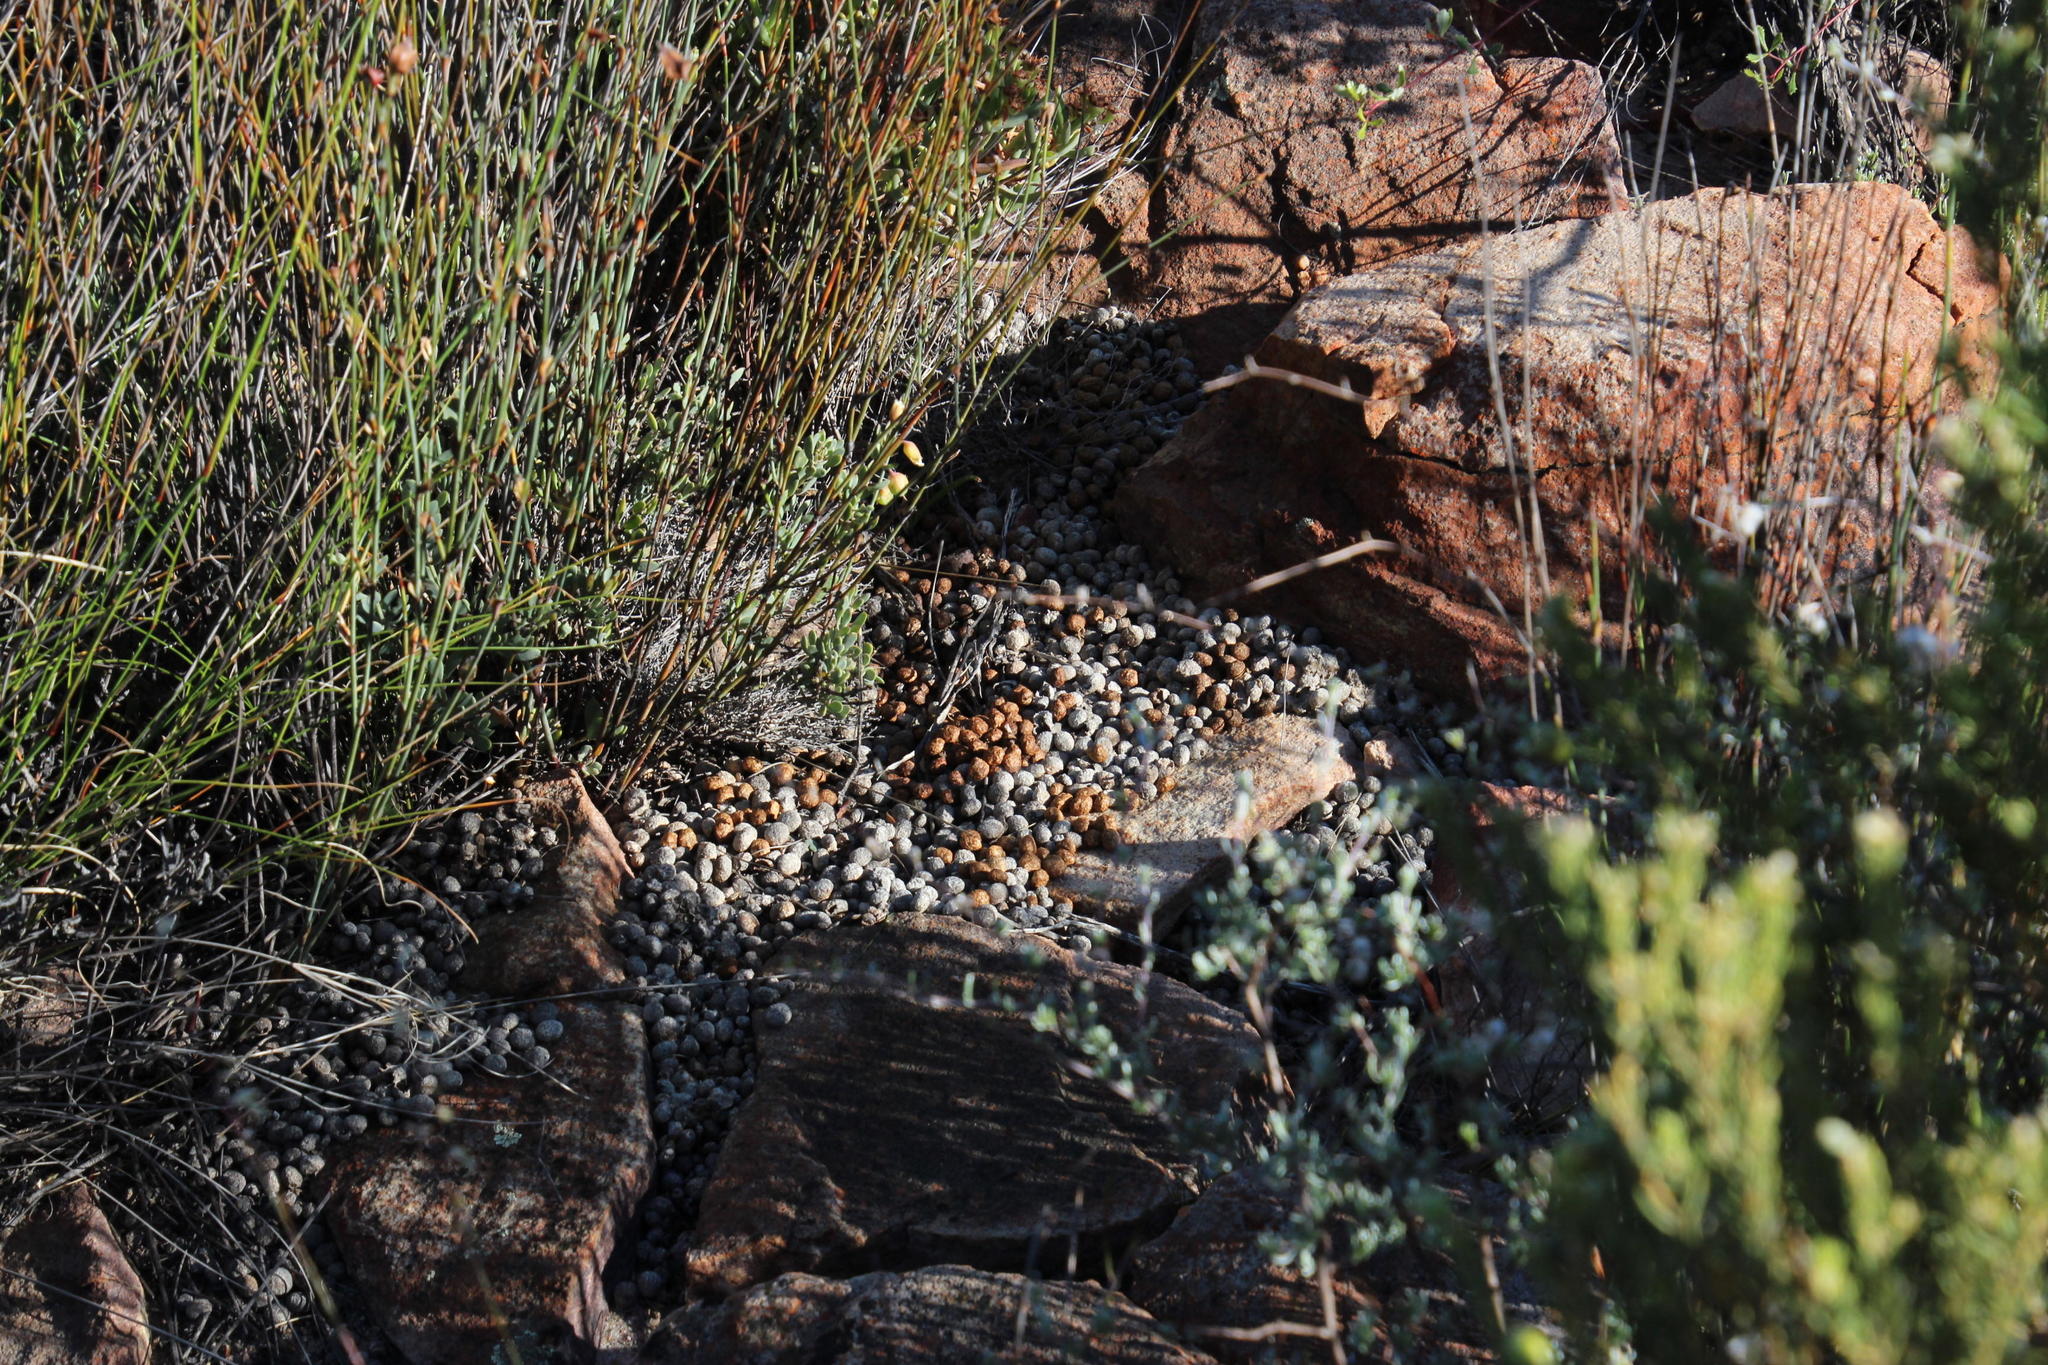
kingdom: Animalia
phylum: Chordata
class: Mammalia
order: Lagomorpha
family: Leporidae
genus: Pronolagus
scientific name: Pronolagus saundersiae
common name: Hewitt's red rock hare
